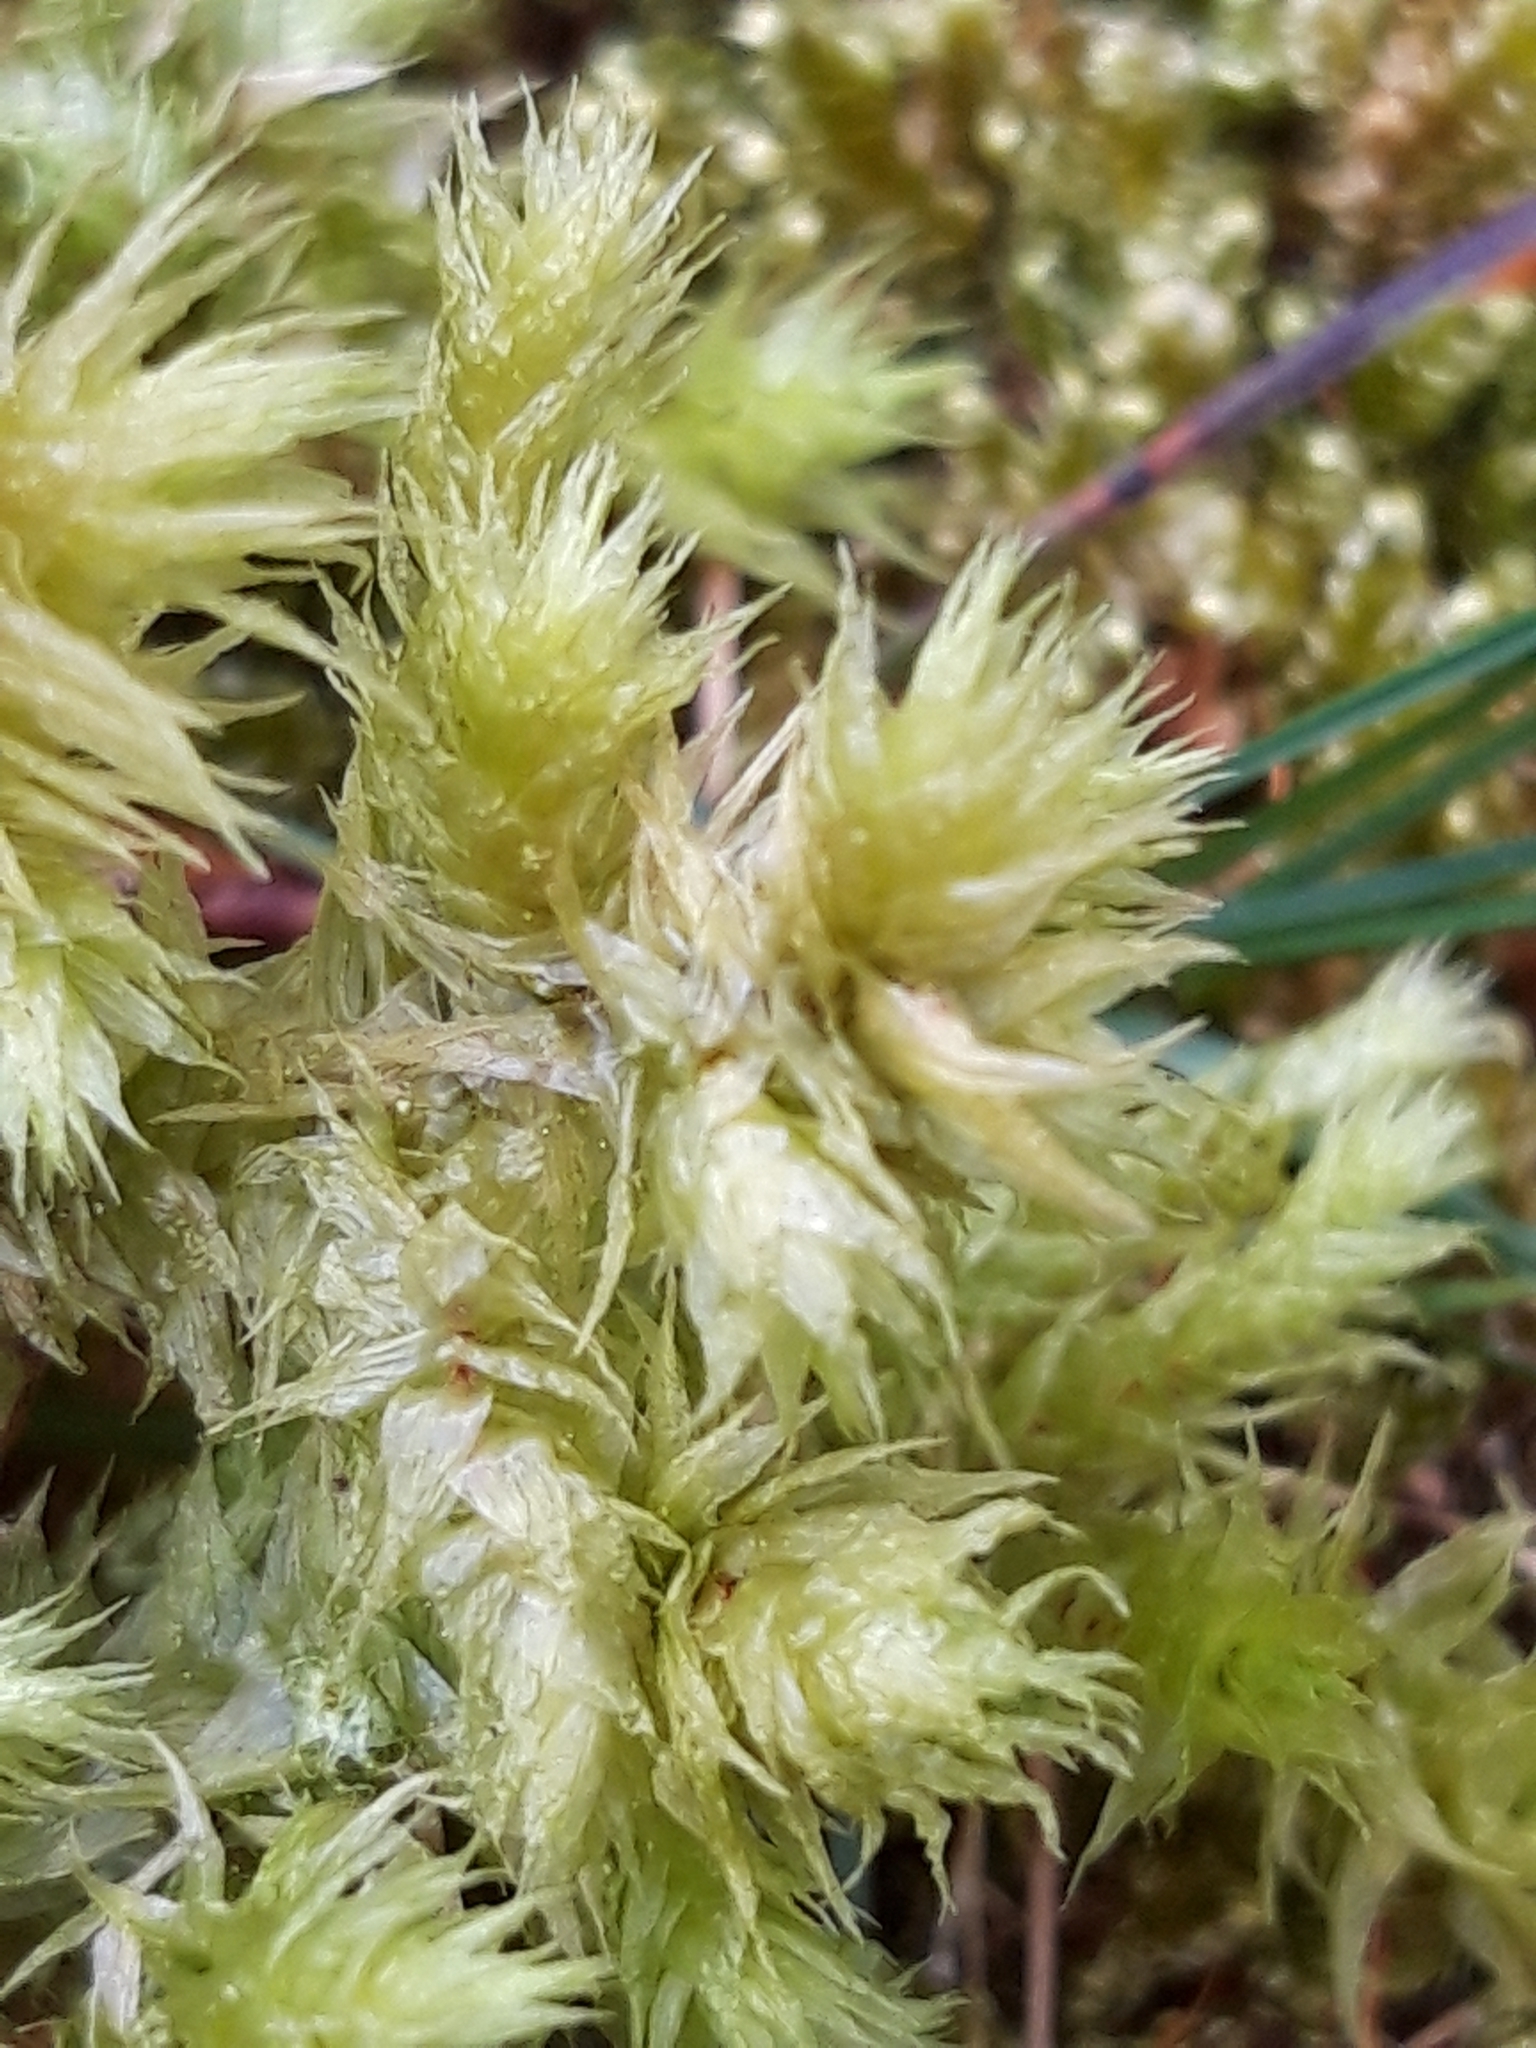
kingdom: Plantae
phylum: Bryophyta
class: Bryopsida
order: Hypnales
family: Hylocomiaceae
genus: Hylocomiadelphus
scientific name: Hylocomiadelphus triquetrus
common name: Rough goose neck moss
